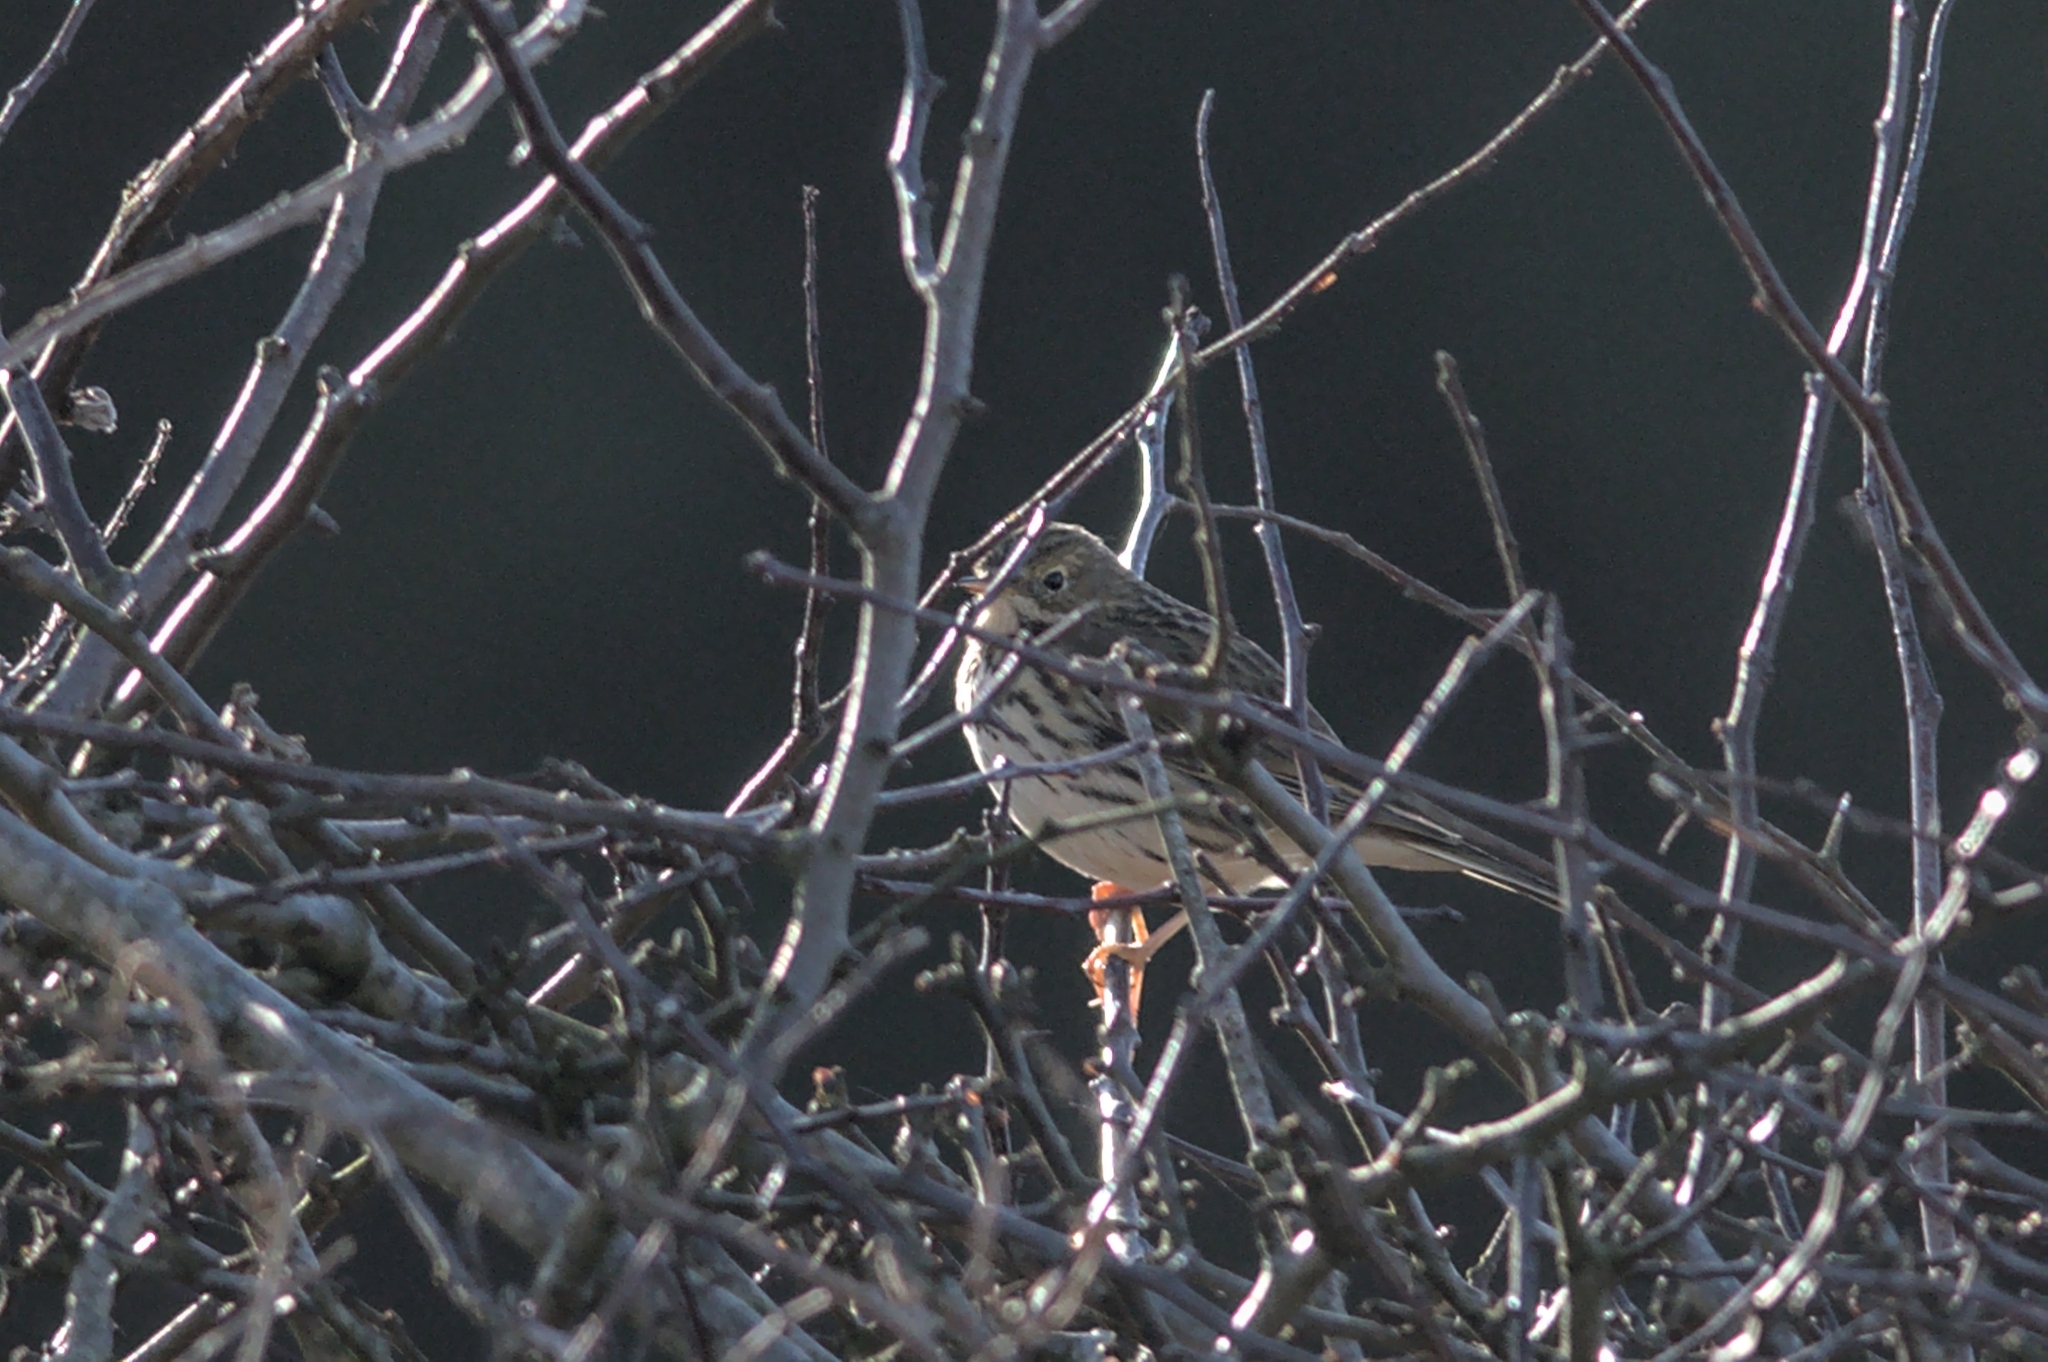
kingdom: Animalia
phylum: Chordata
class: Aves
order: Passeriformes
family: Motacillidae
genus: Anthus
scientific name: Anthus pratensis
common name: Meadow pipit
